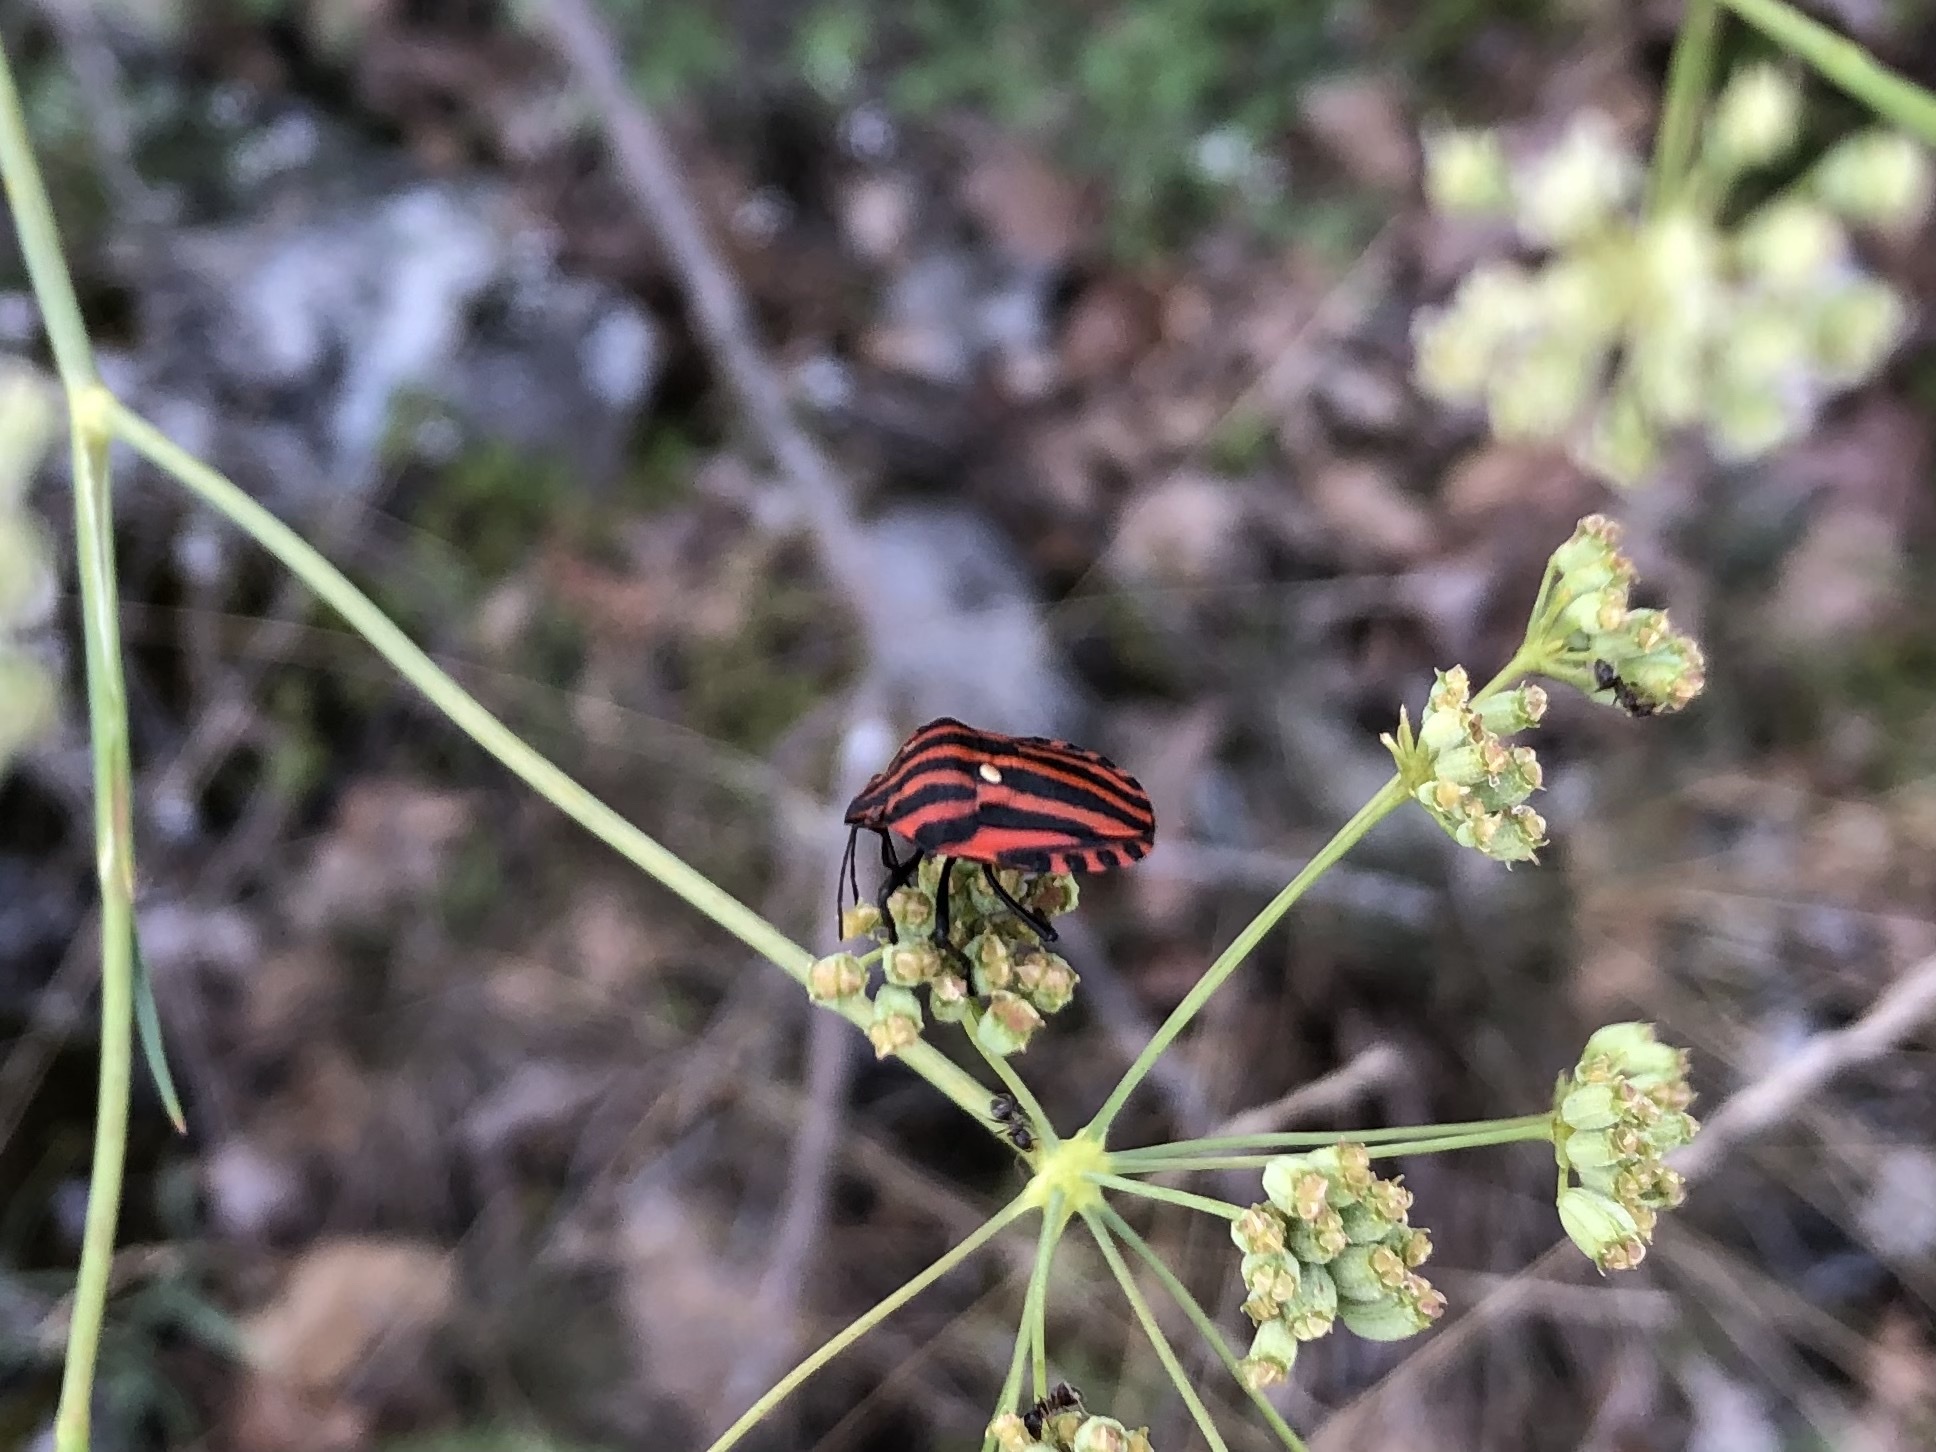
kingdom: Animalia
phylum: Arthropoda
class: Insecta
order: Hemiptera
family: Pentatomidae
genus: Graphosoma
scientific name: Graphosoma italicum
